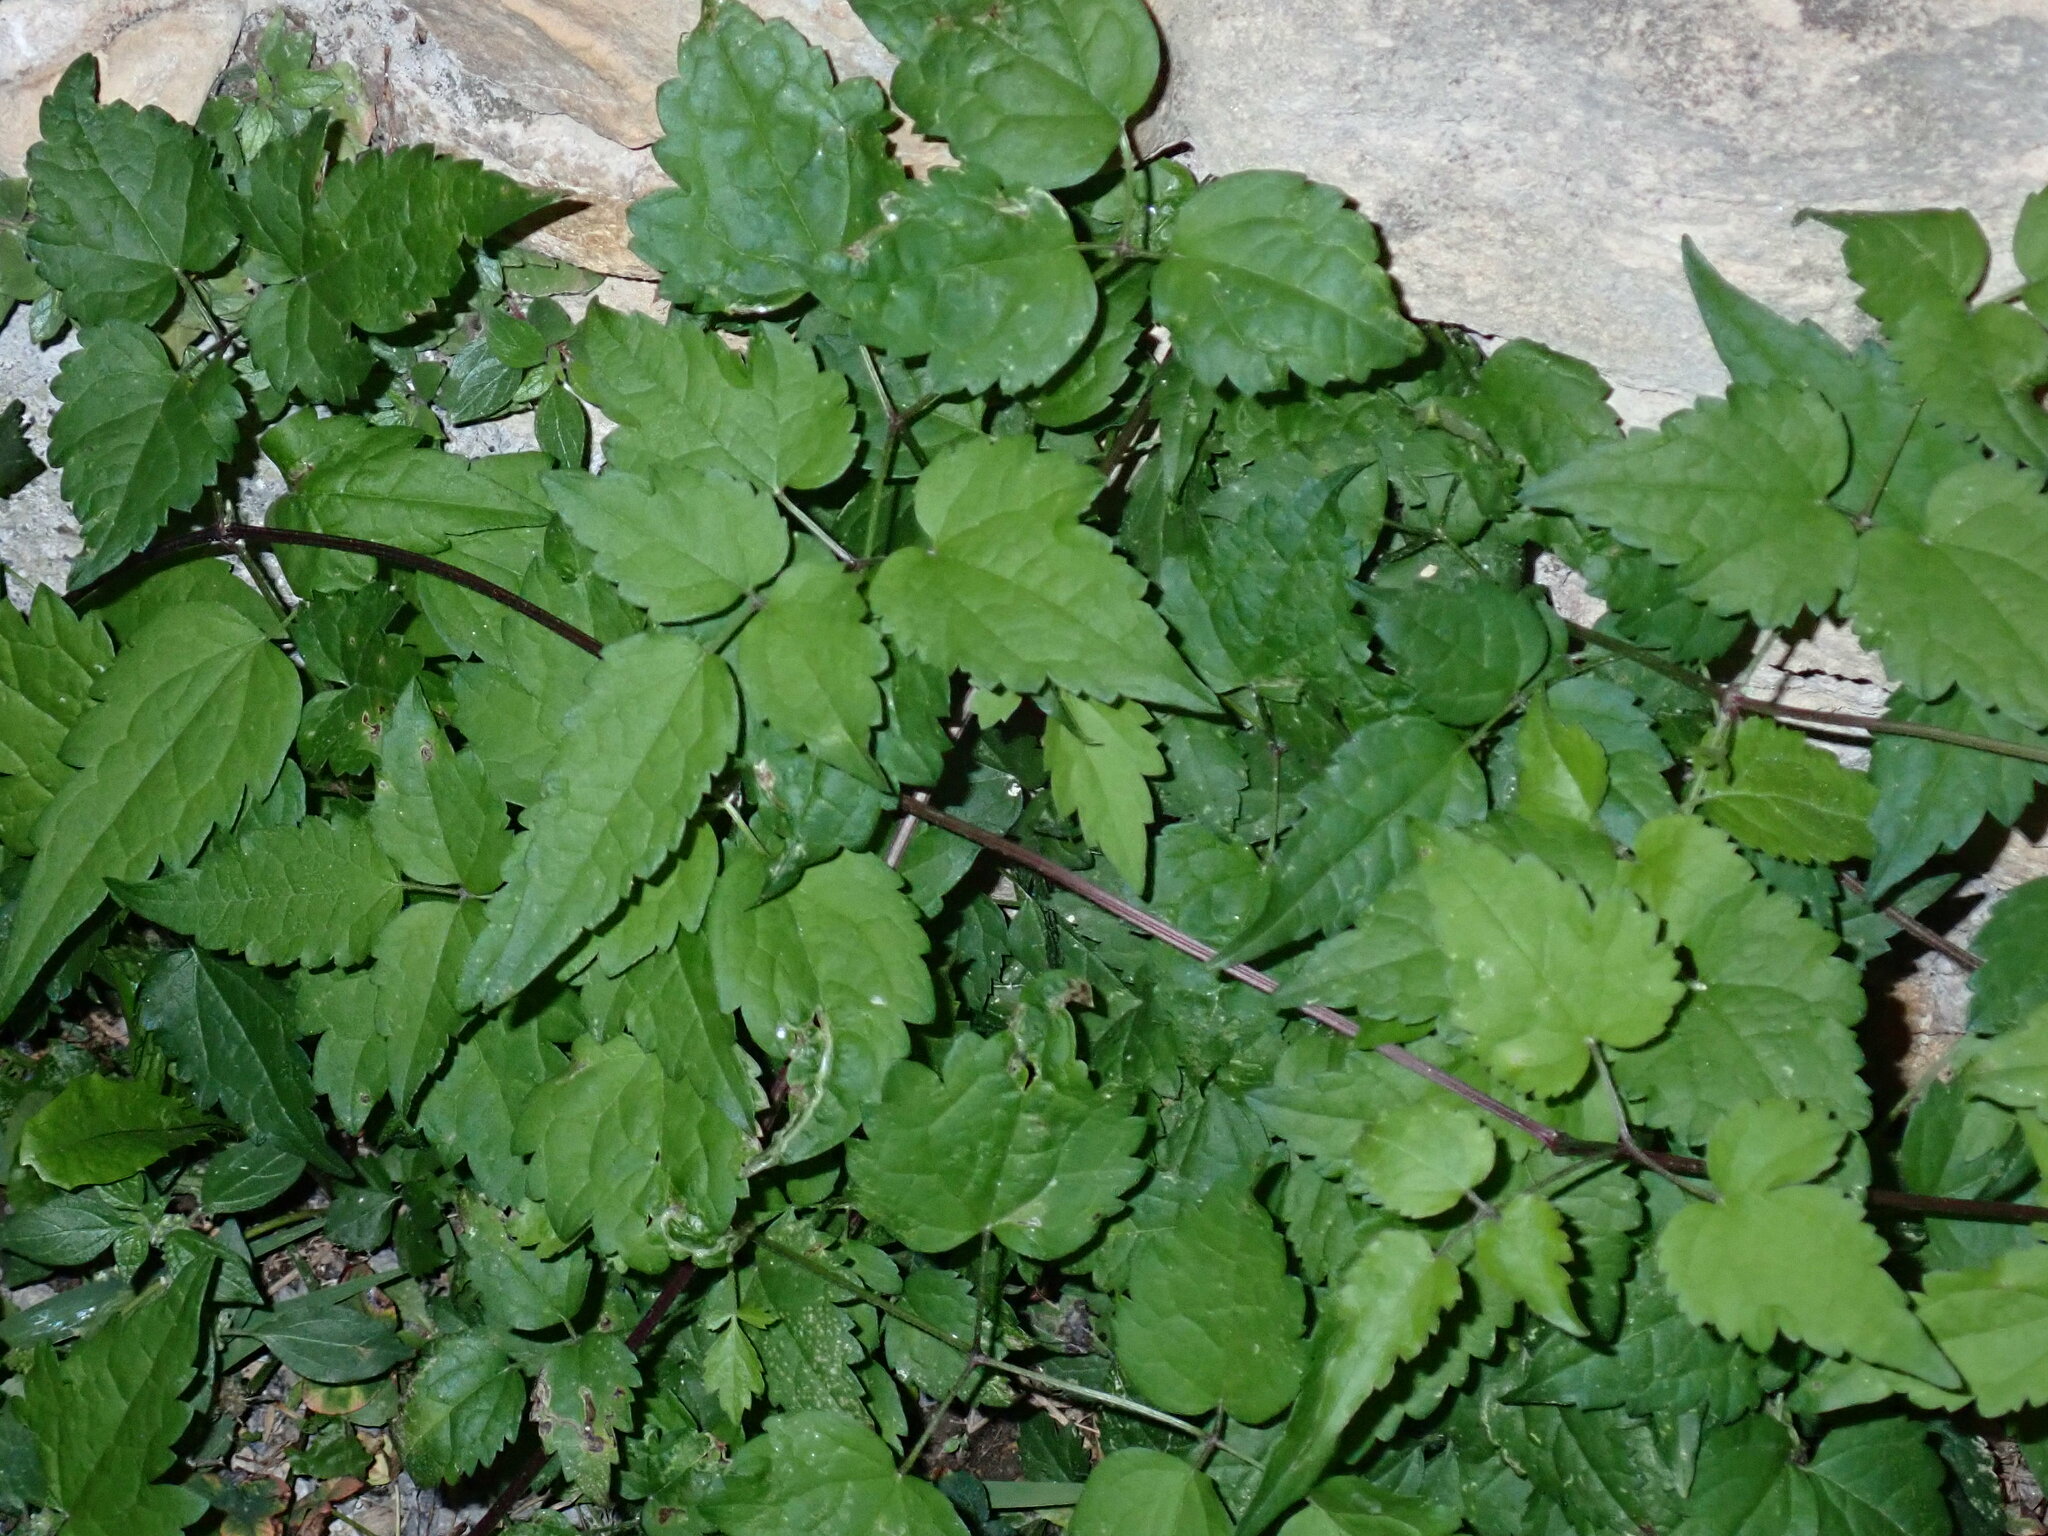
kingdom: Plantae
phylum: Tracheophyta
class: Magnoliopsida
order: Ranunculales
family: Ranunculaceae
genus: Clematis
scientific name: Clematis vitalba
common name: Evergreen clematis
